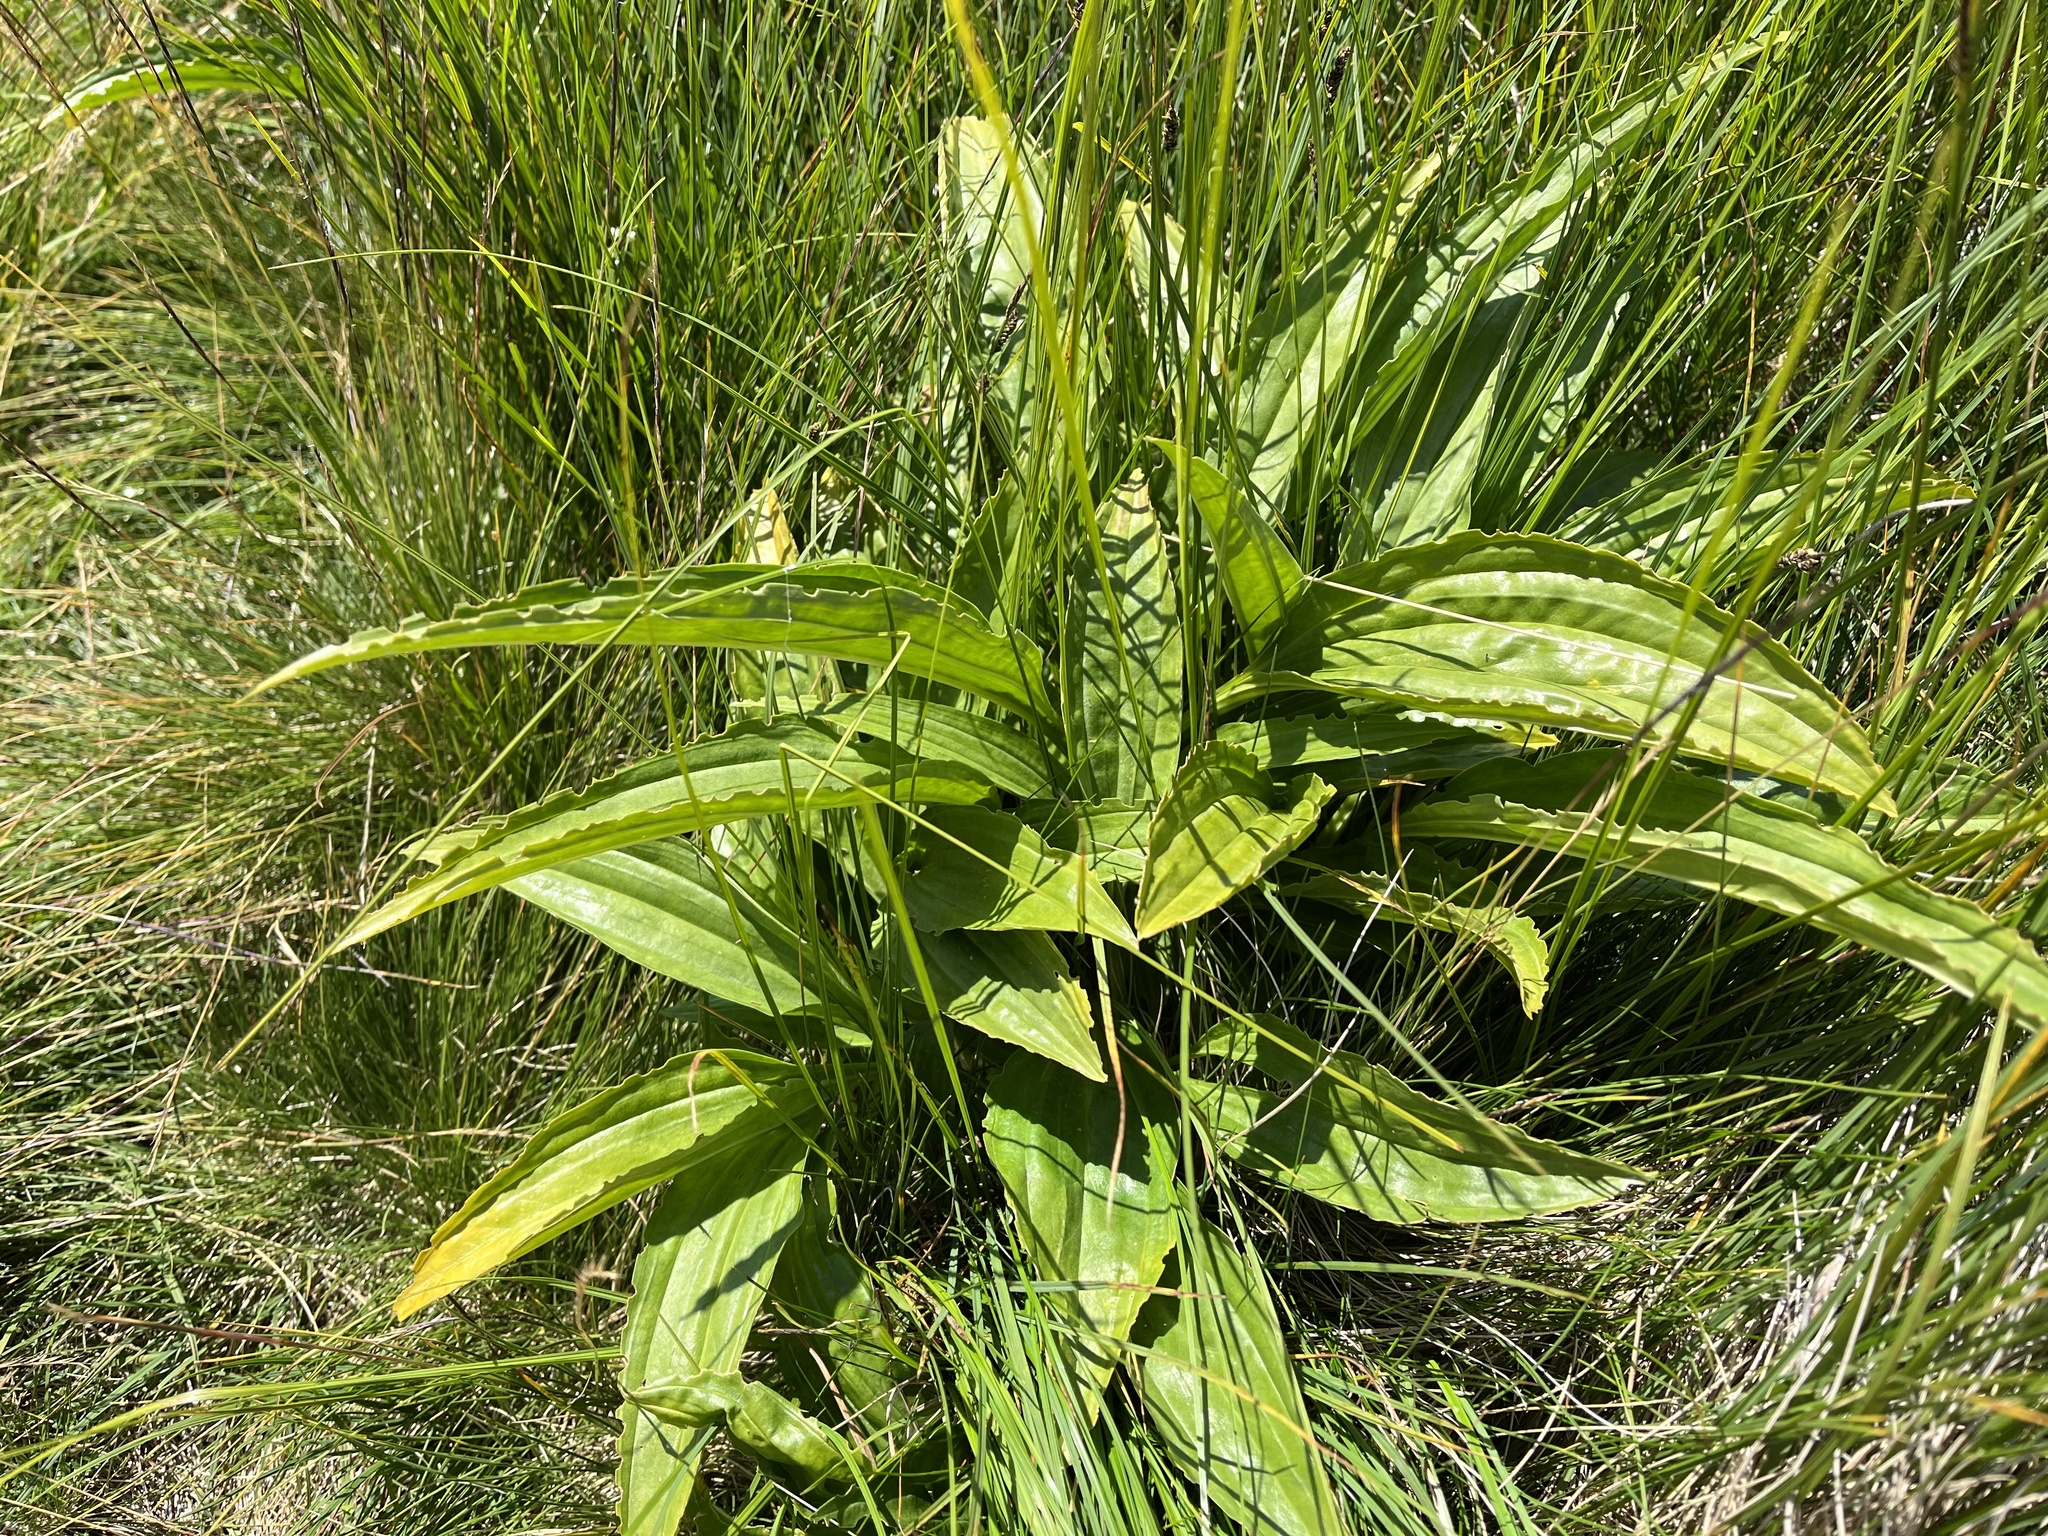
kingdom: Plantae
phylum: Tracheophyta
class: Magnoliopsida
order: Gentianales
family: Gentianaceae
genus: Gentiana
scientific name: Gentiana pannonica
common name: Hungarian gentian
